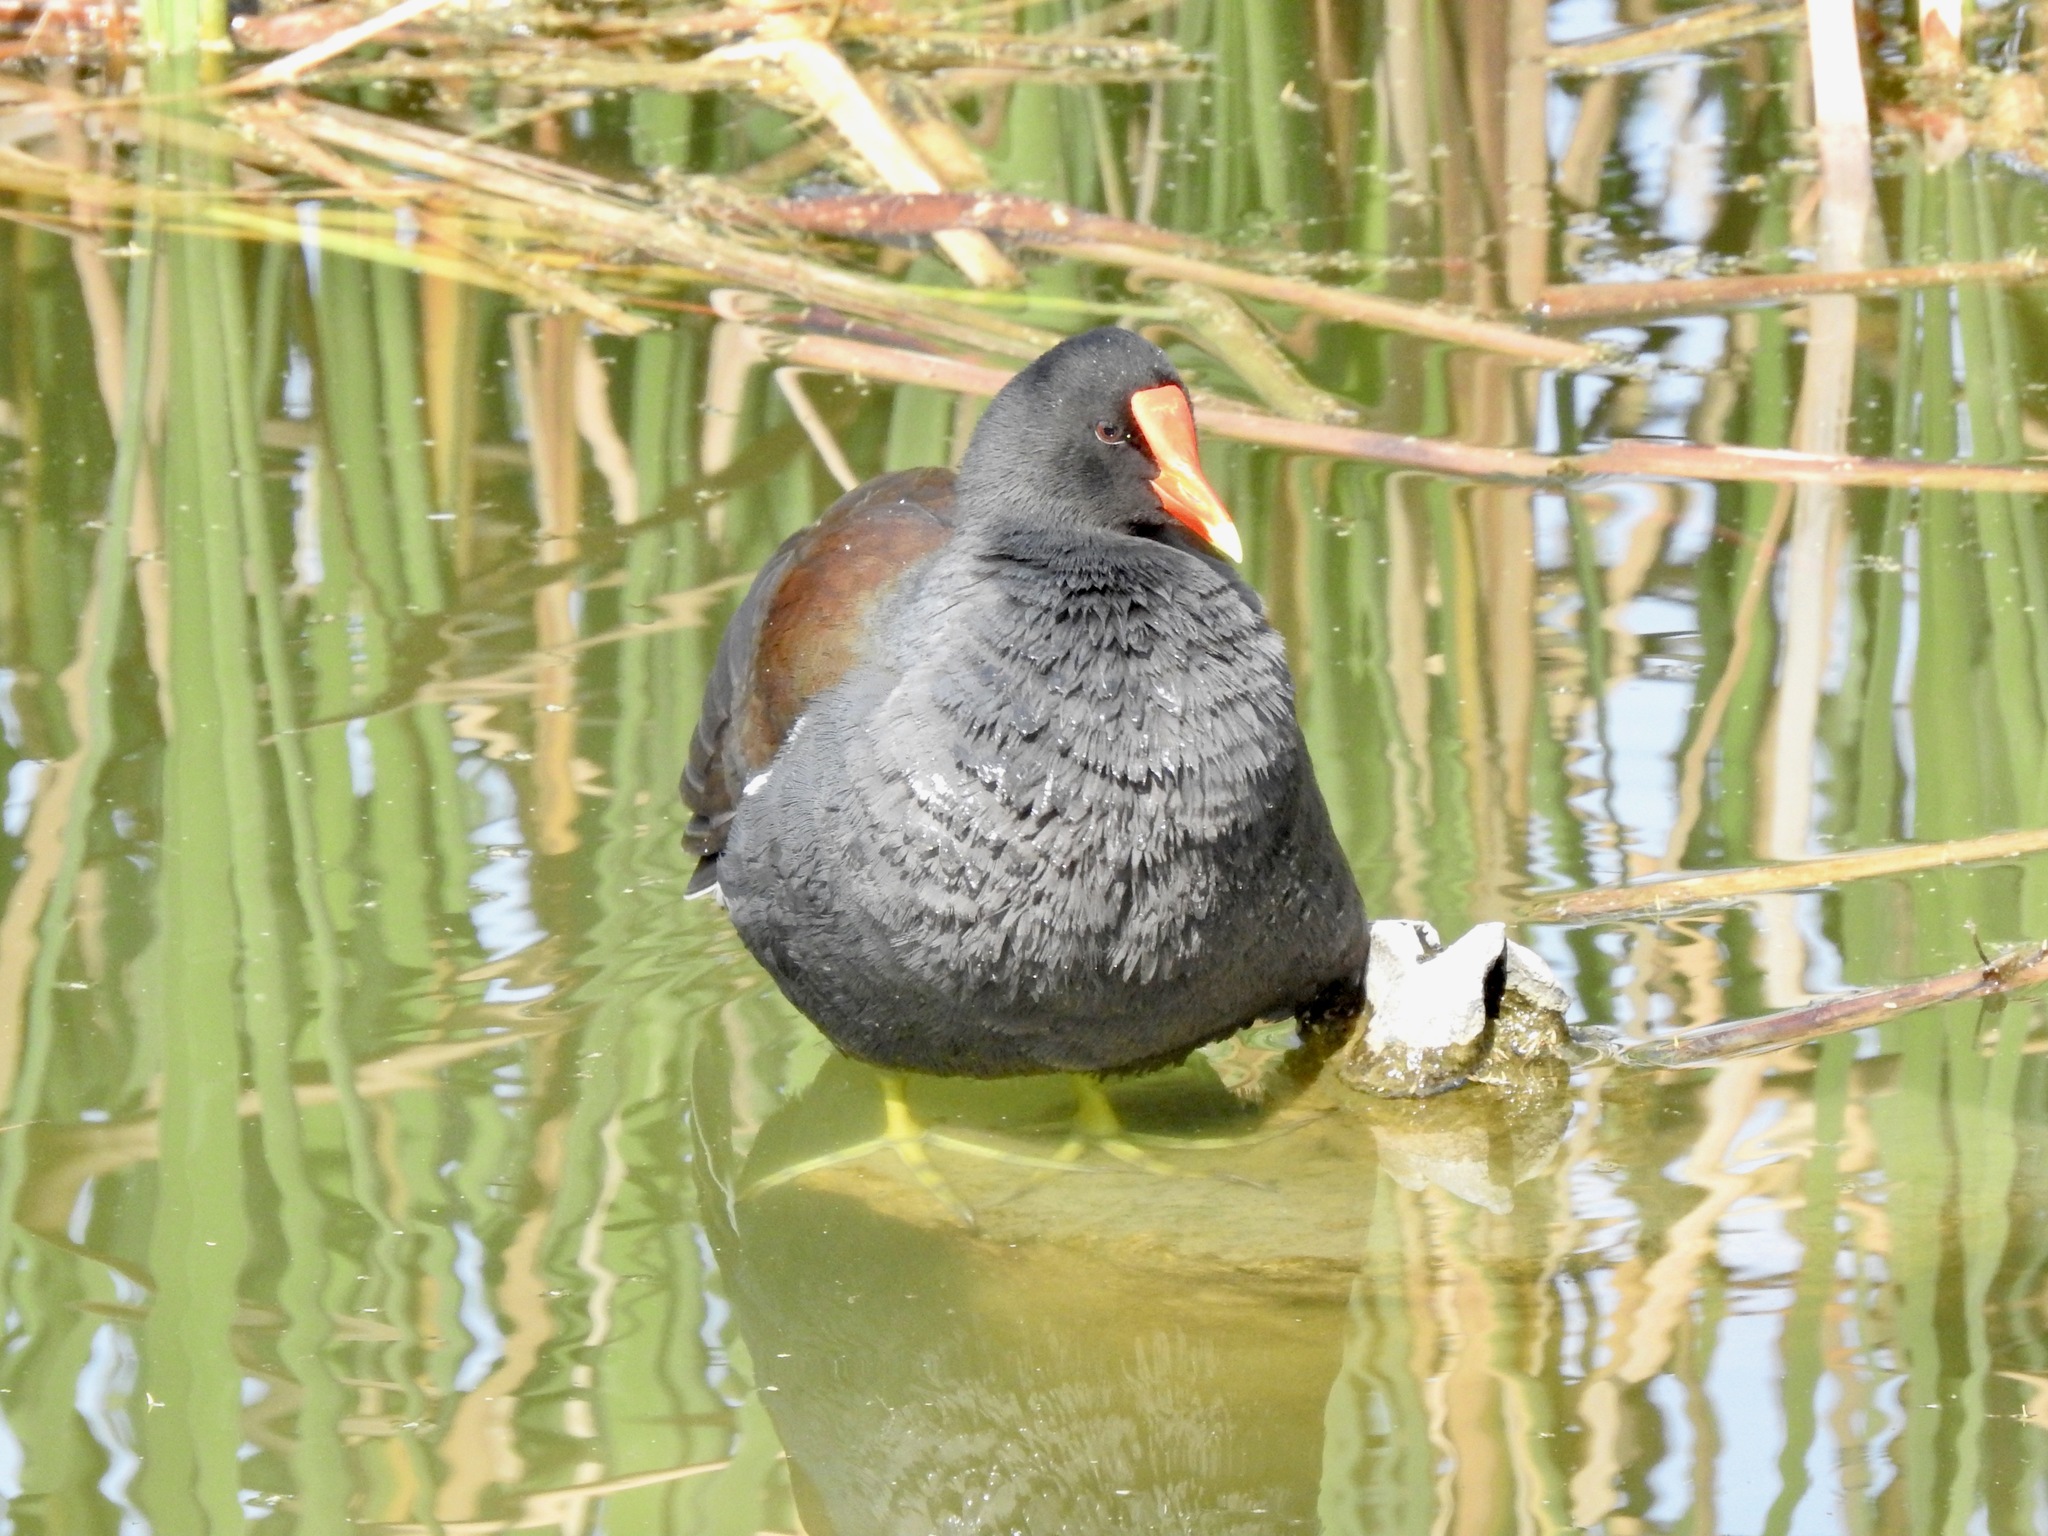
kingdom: Animalia
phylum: Chordata
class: Aves
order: Gruiformes
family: Rallidae
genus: Gallinula
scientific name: Gallinula chloropus
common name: Common moorhen
